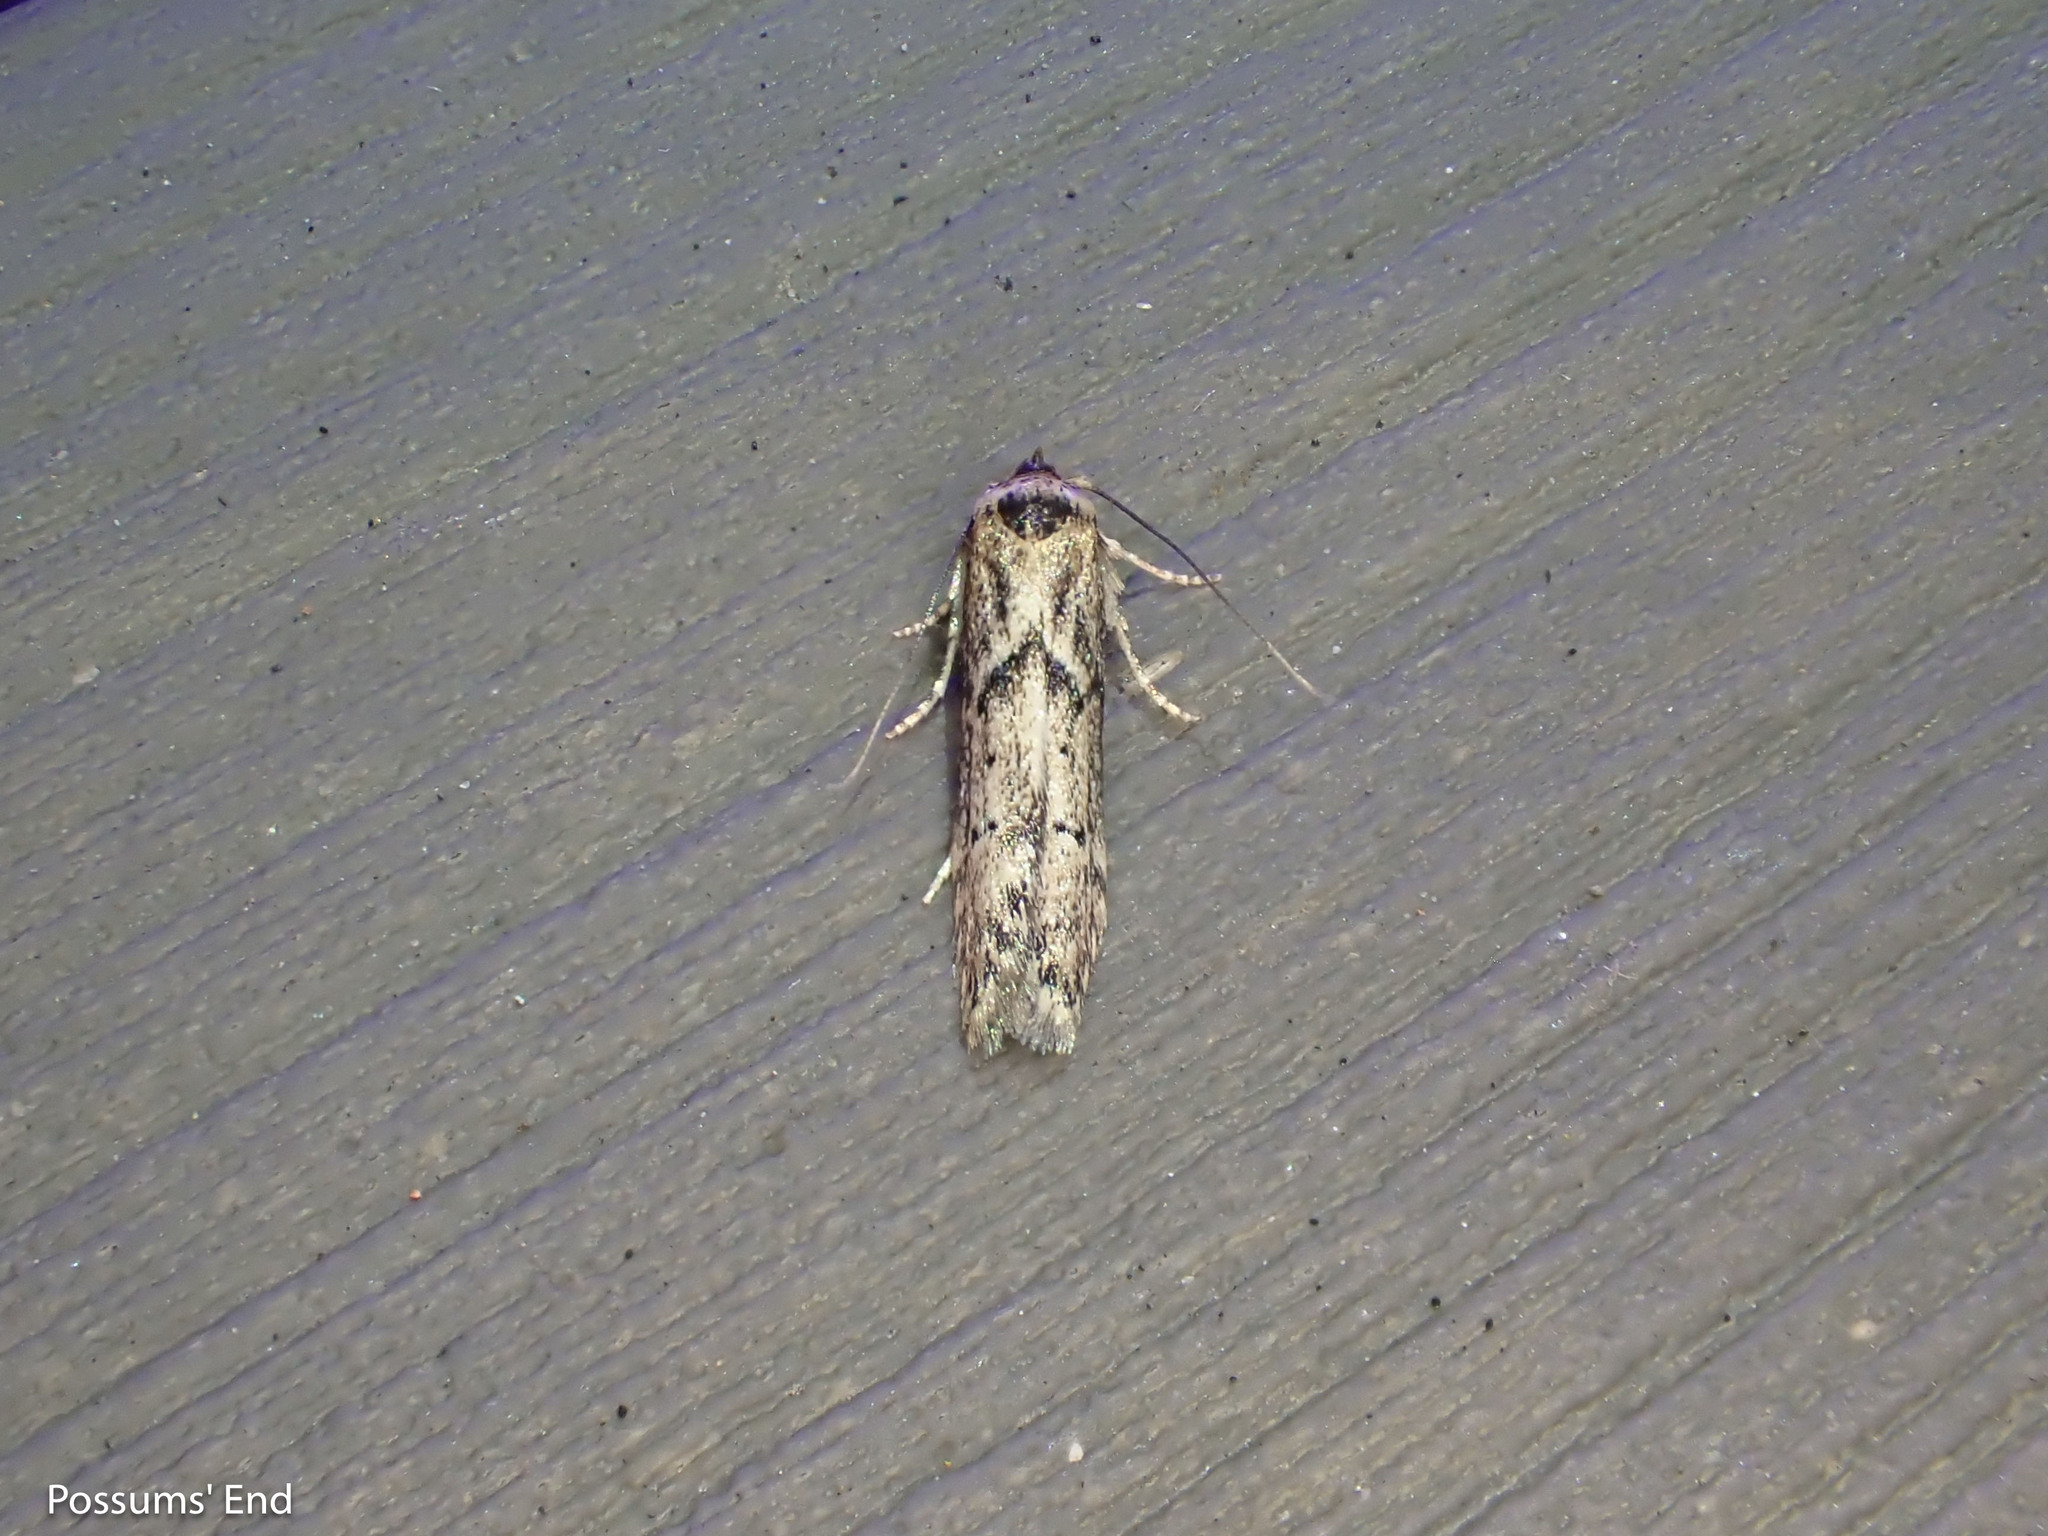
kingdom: Animalia
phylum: Arthropoda
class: Insecta
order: Lepidoptera
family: Blastobasidae
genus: Blastobasis
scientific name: Blastobasis adustella
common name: Dingy dowd
